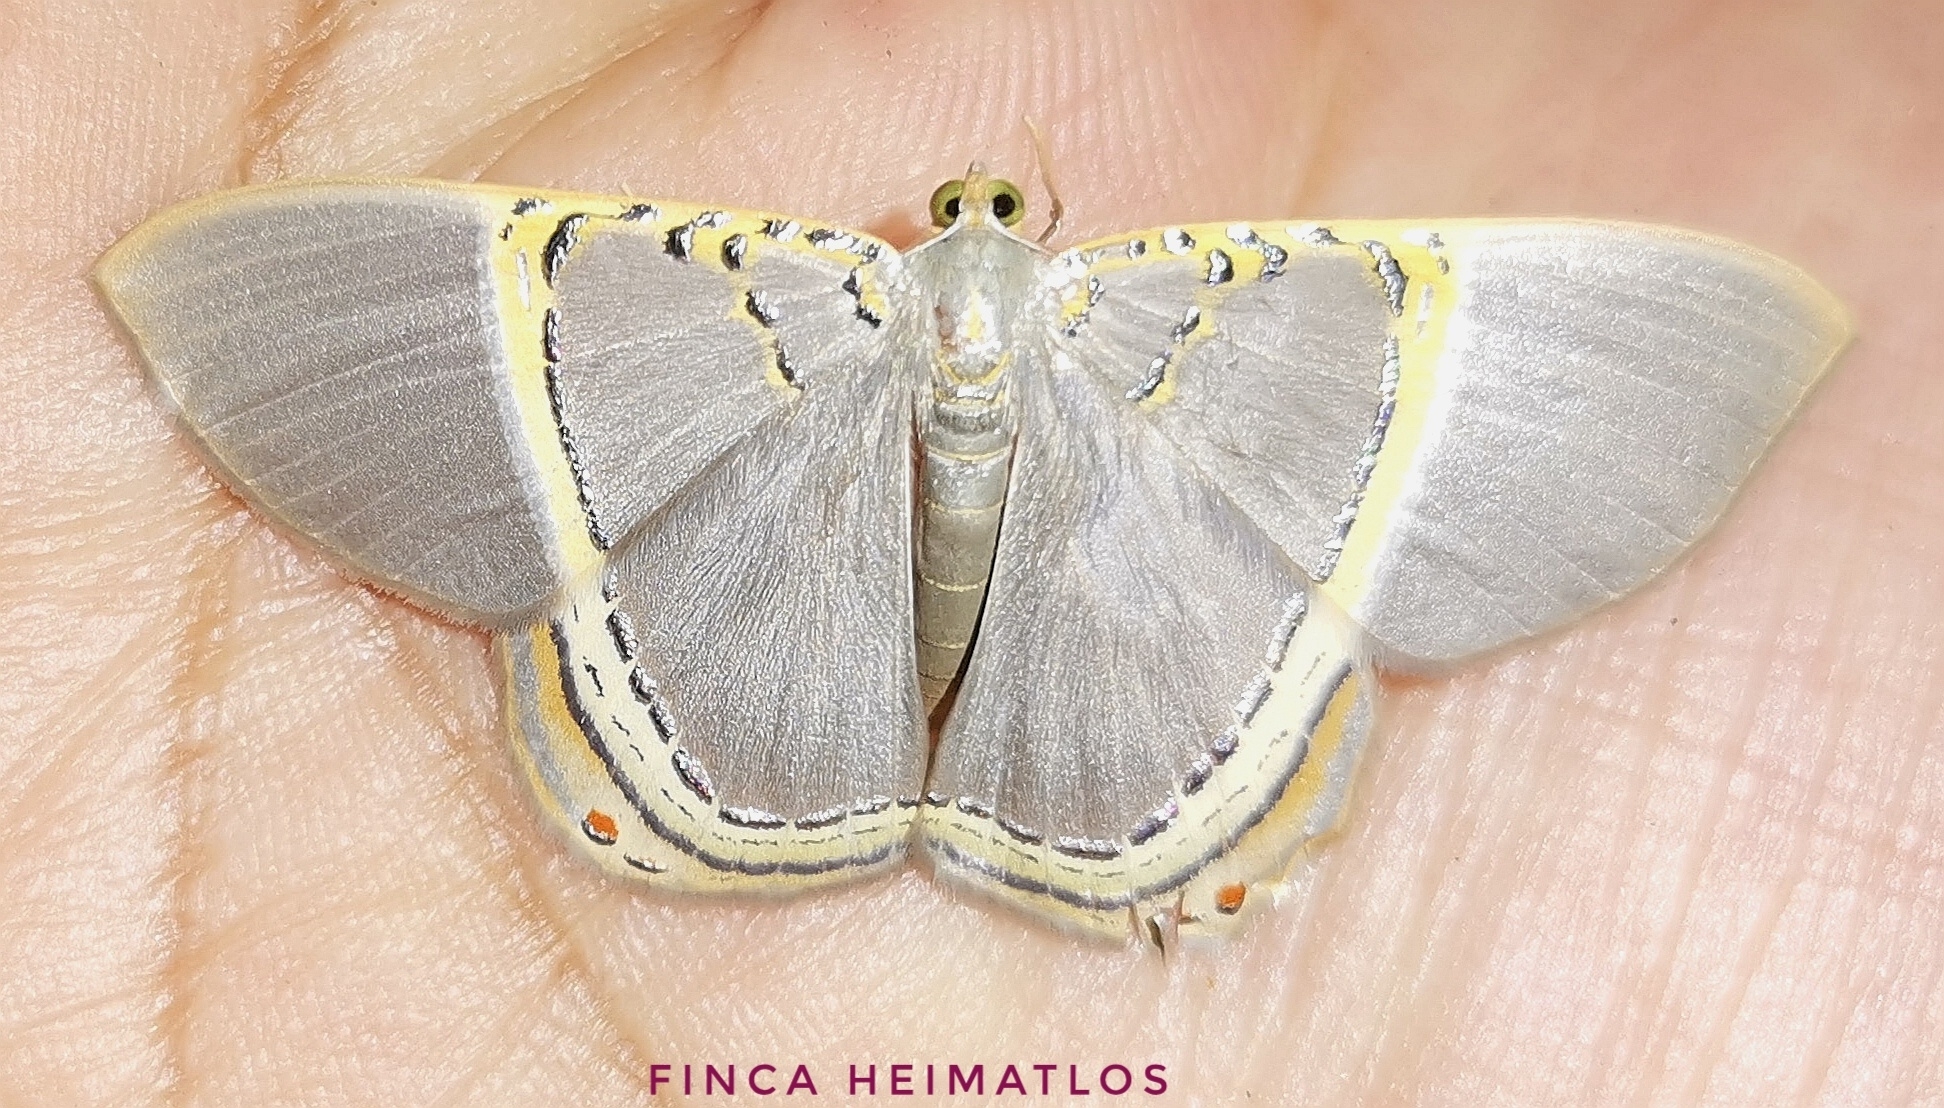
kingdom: Animalia
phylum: Arthropoda
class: Insecta
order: Lepidoptera
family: Geometridae
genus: Phrygionis
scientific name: Phrygionis privignaria
